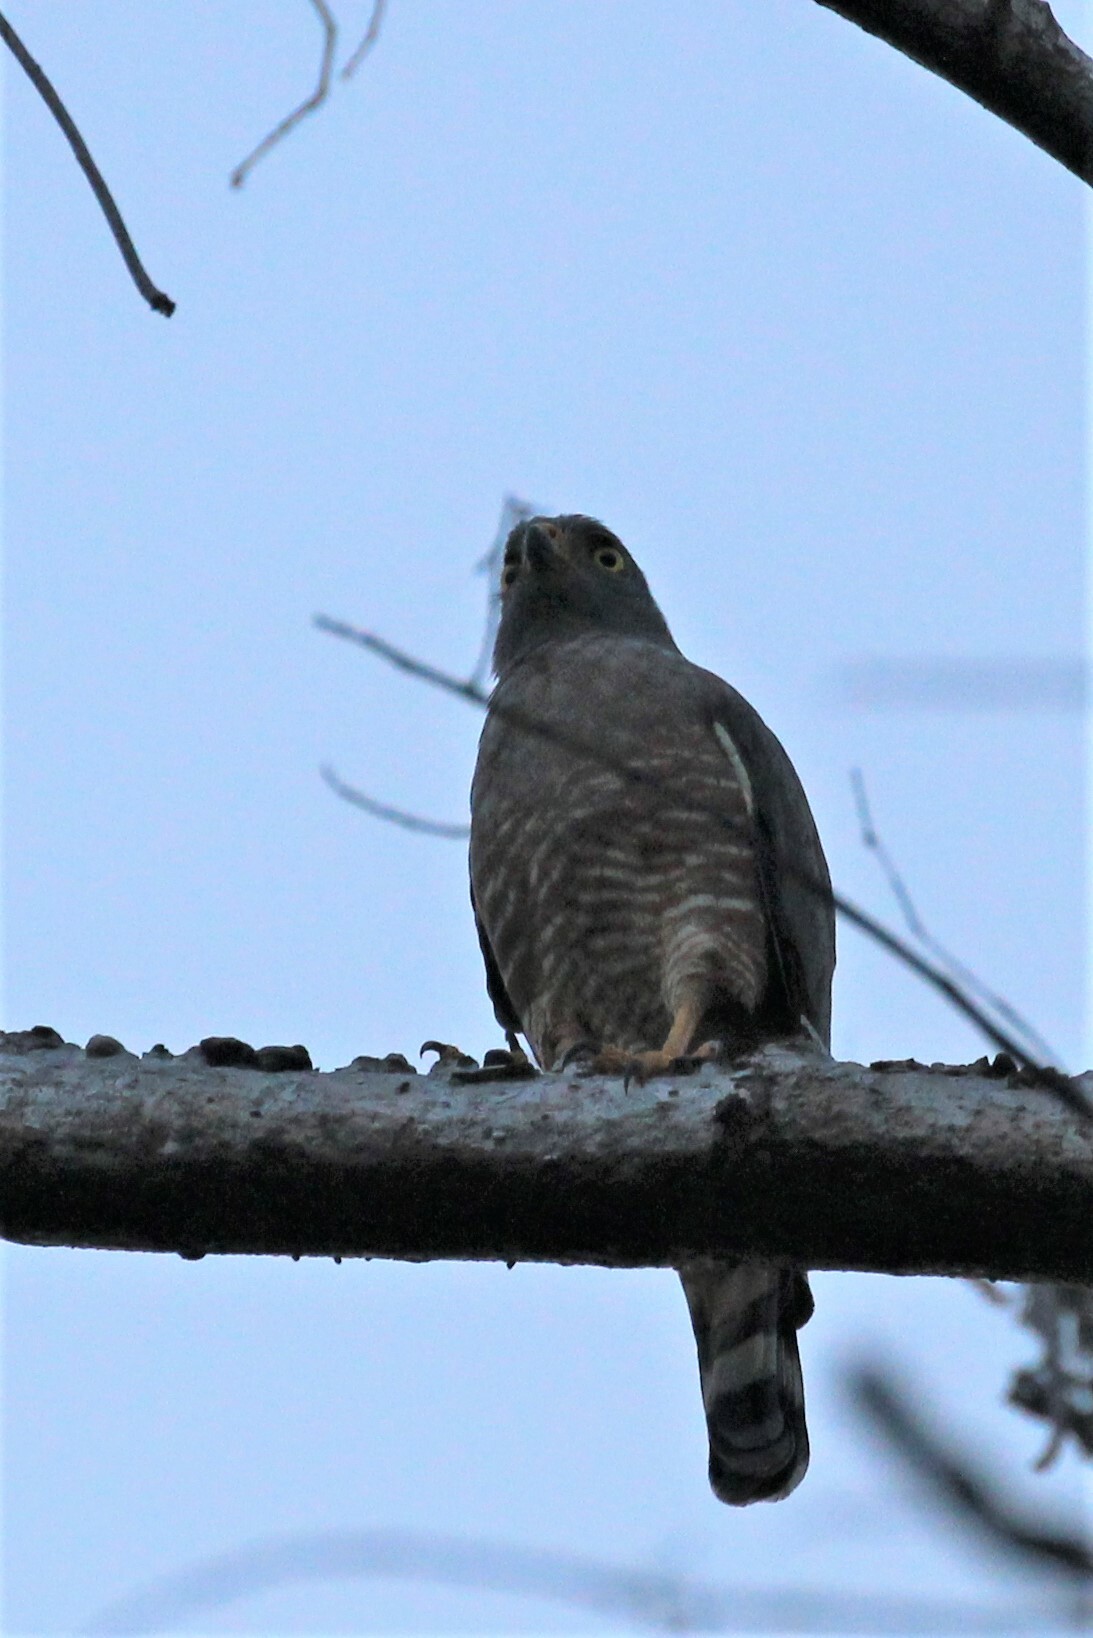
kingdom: Animalia
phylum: Chordata
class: Aves
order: Accipitriformes
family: Accipitridae
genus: Rupornis
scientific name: Rupornis magnirostris
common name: Roadside hawk
